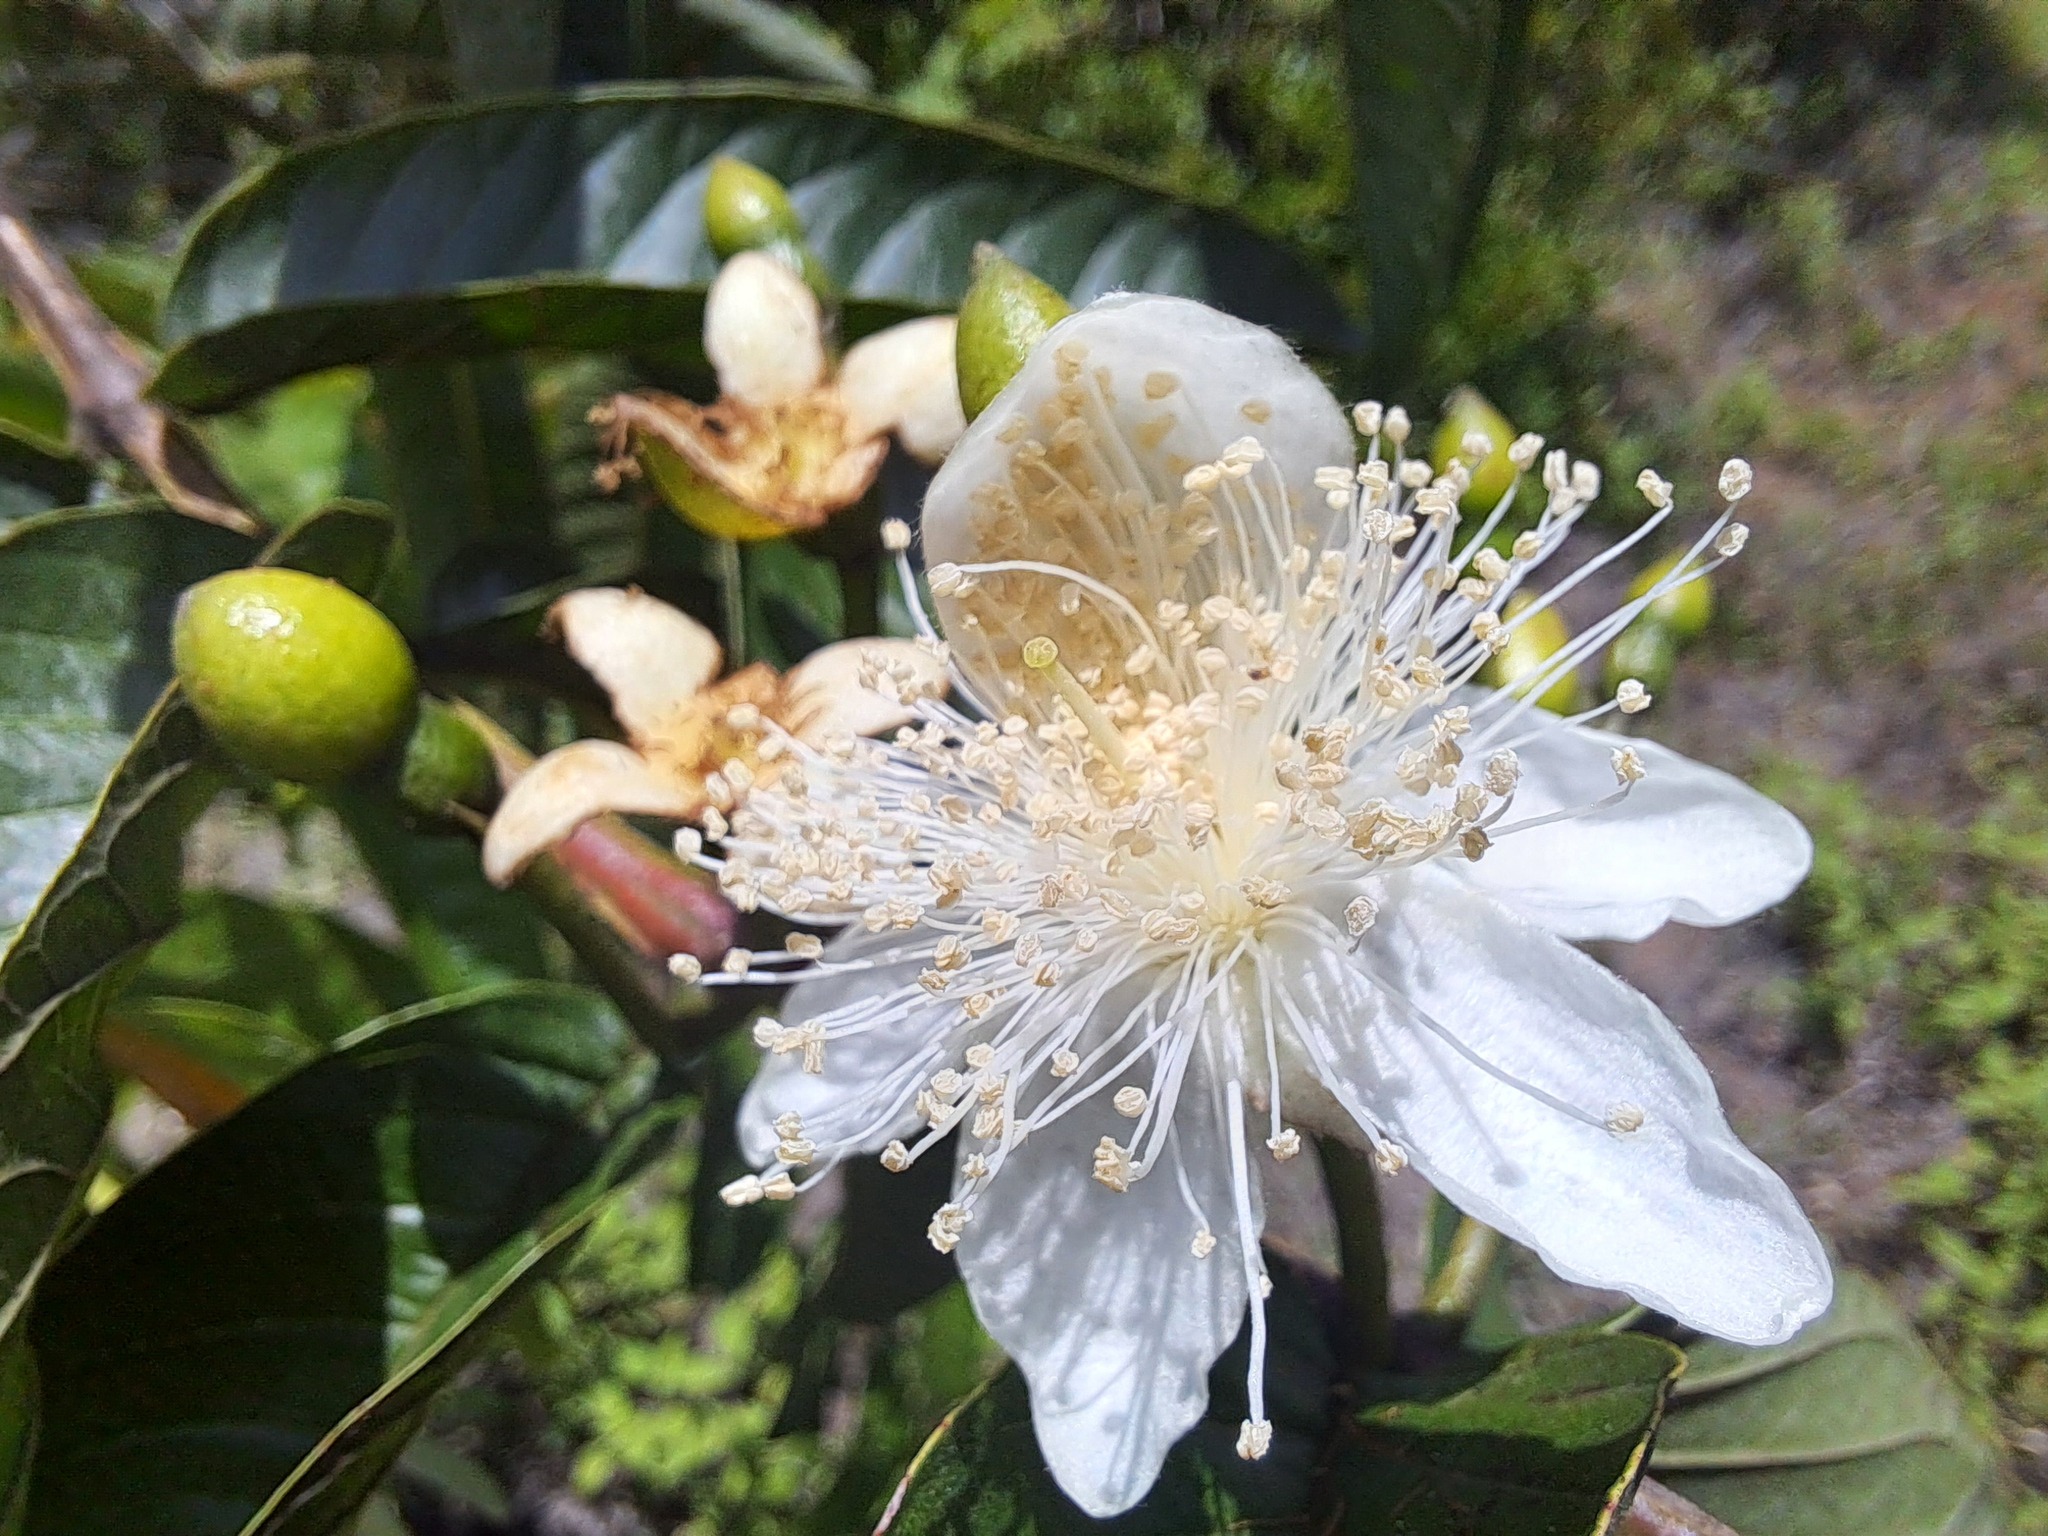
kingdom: Plantae
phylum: Tracheophyta
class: Magnoliopsida
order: Myrtales
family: Myrtaceae
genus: Psidium
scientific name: Psidium guajava
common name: Guava
